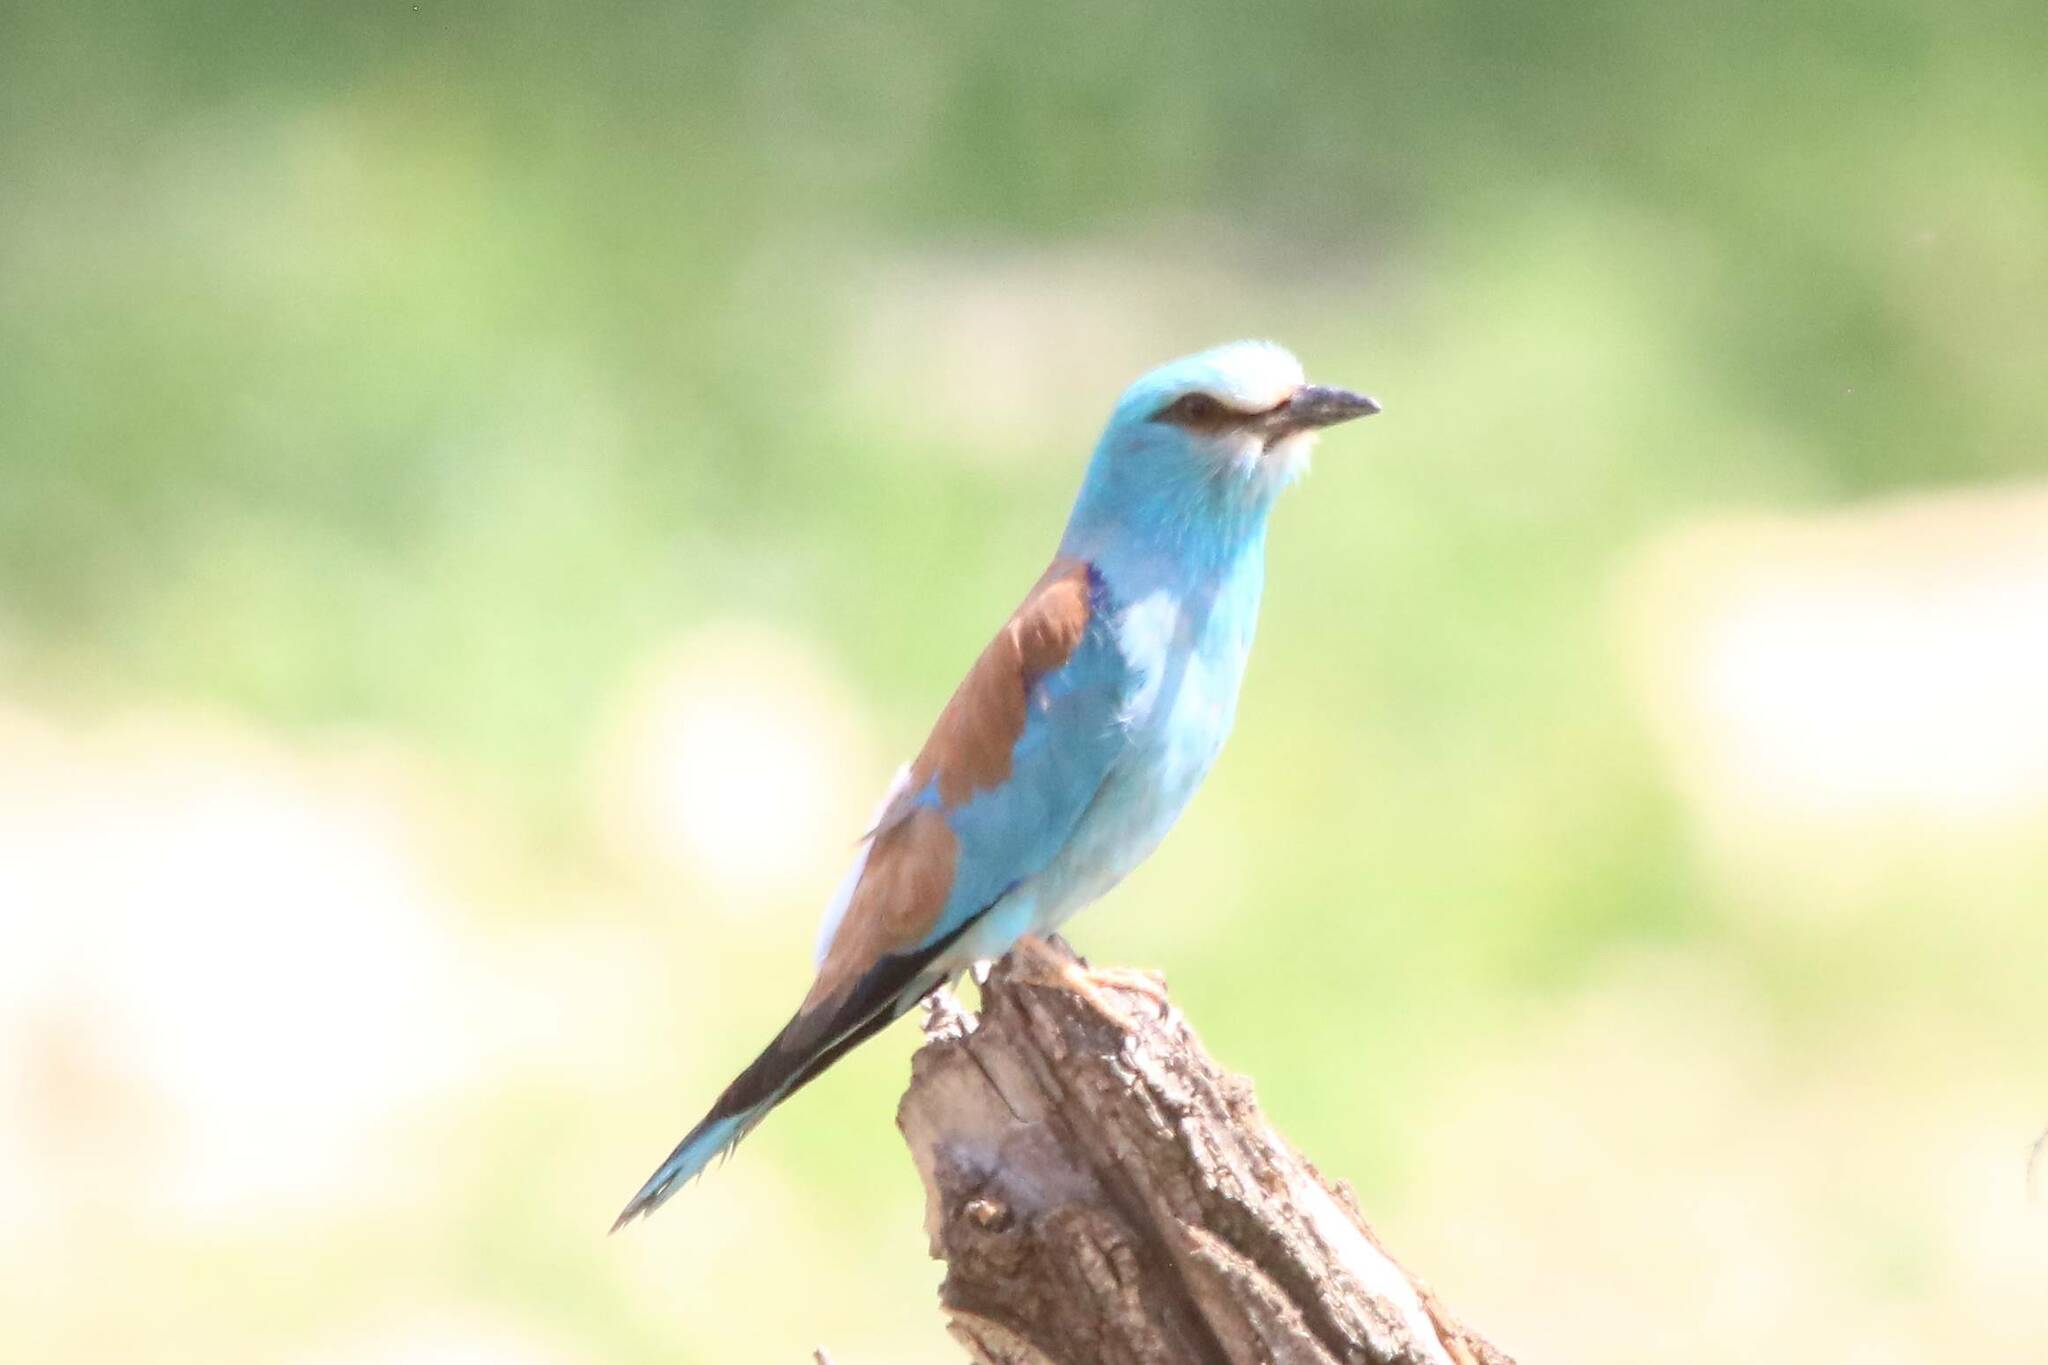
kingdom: Animalia
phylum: Chordata
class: Aves
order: Coraciiformes
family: Coraciidae
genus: Coracias
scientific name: Coracias garrulus
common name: European roller
